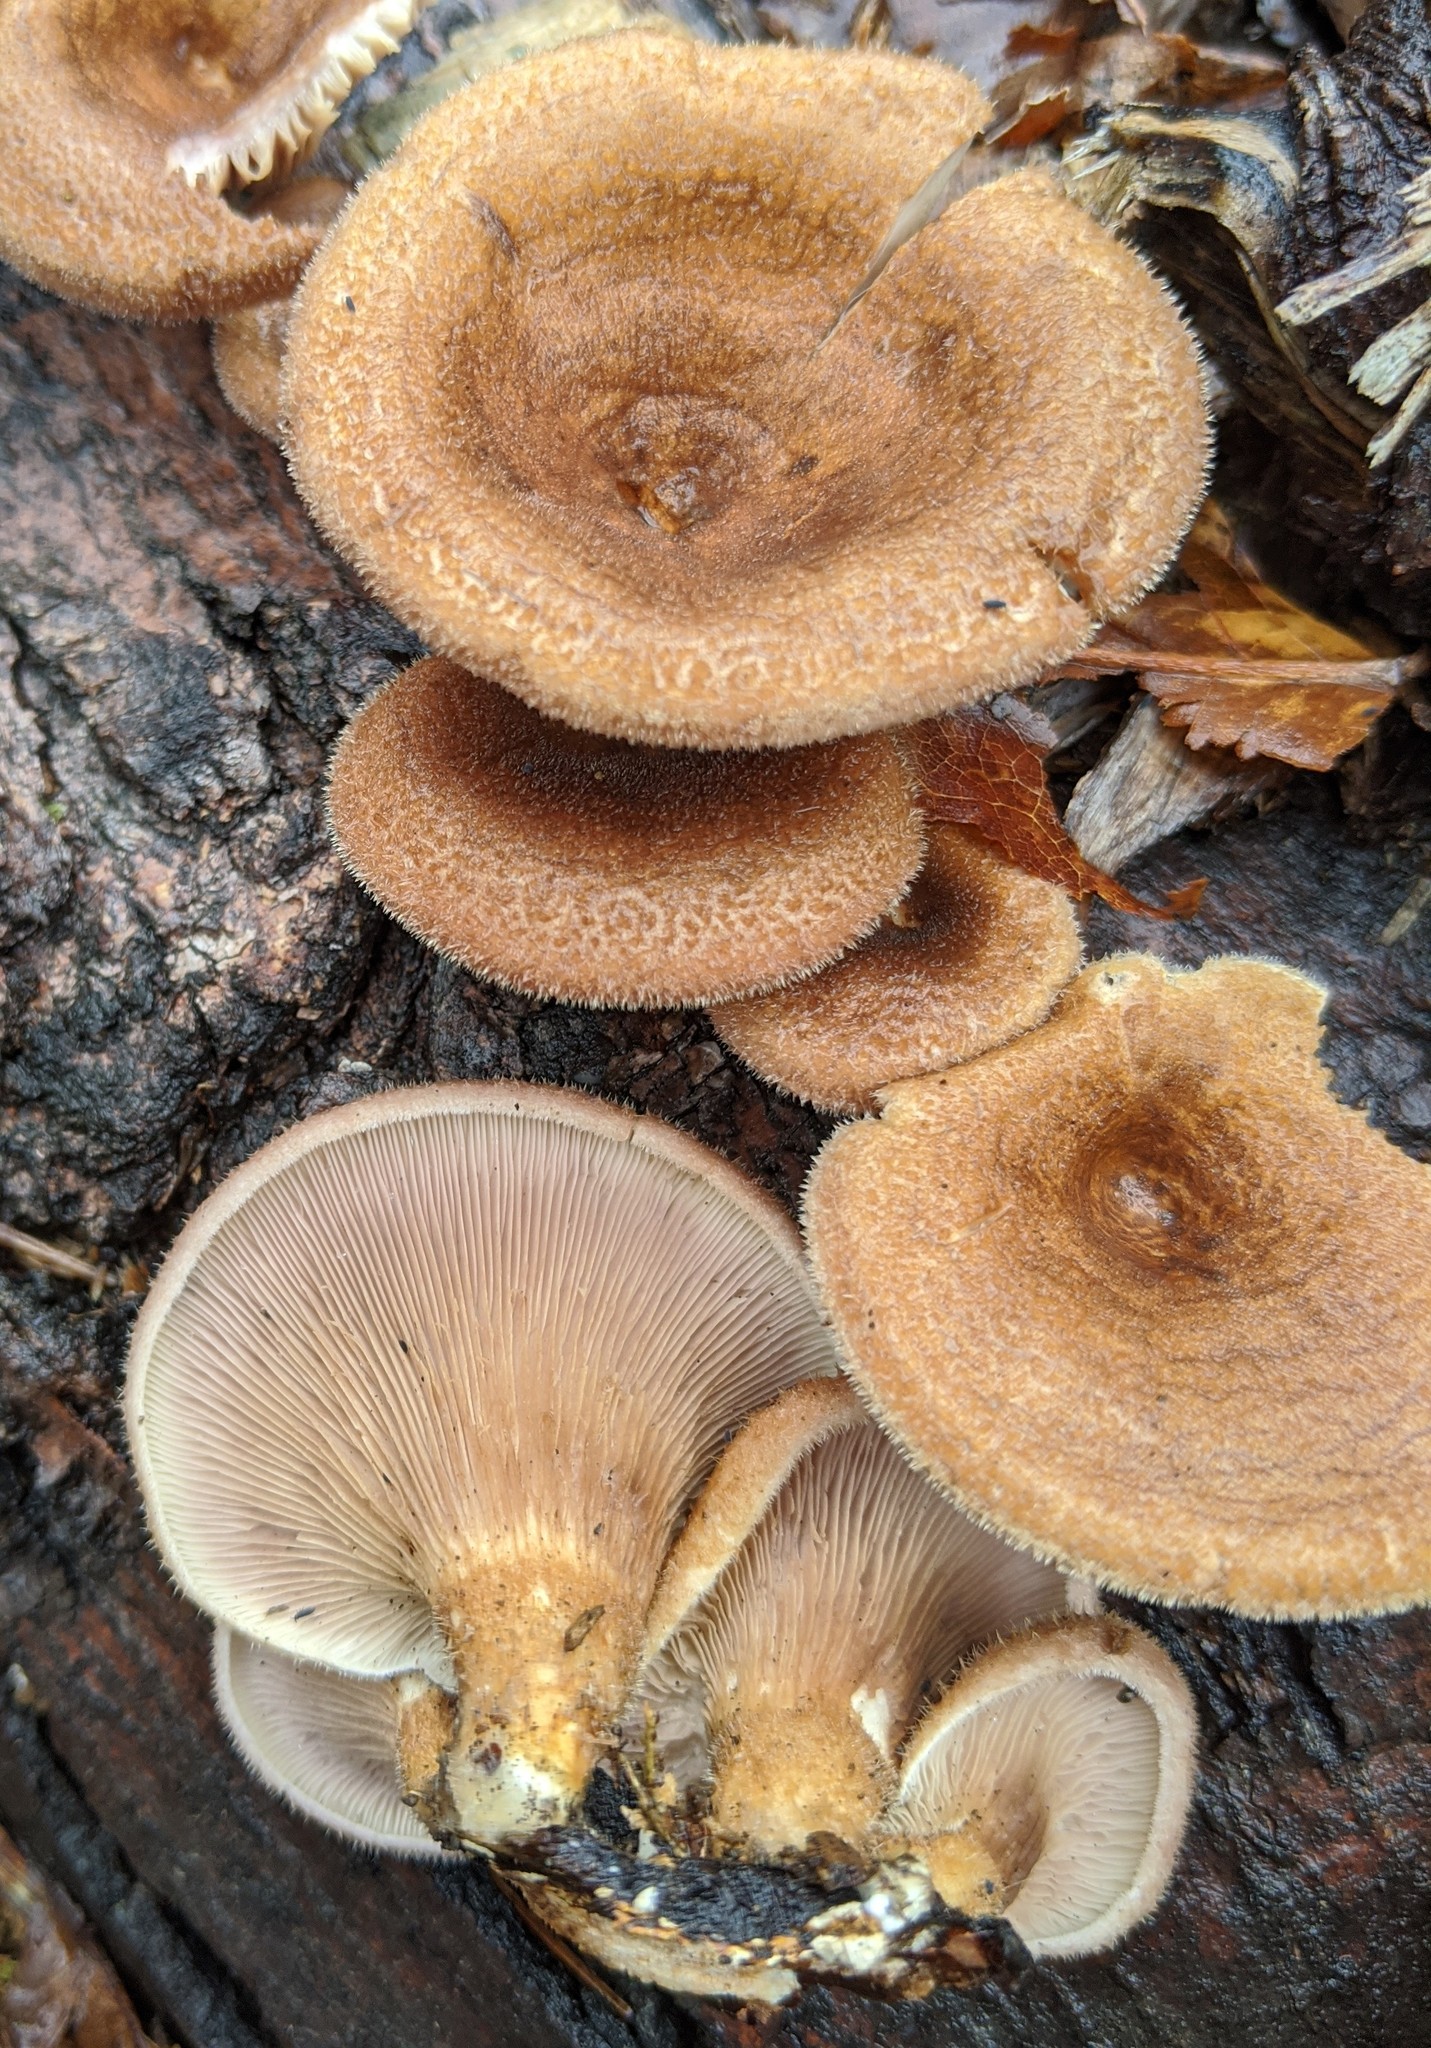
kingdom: Fungi
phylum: Basidiomycota
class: Agaricomycetes
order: Polyporales
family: Panaceae
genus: Panus
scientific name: Panus neostrigosus
